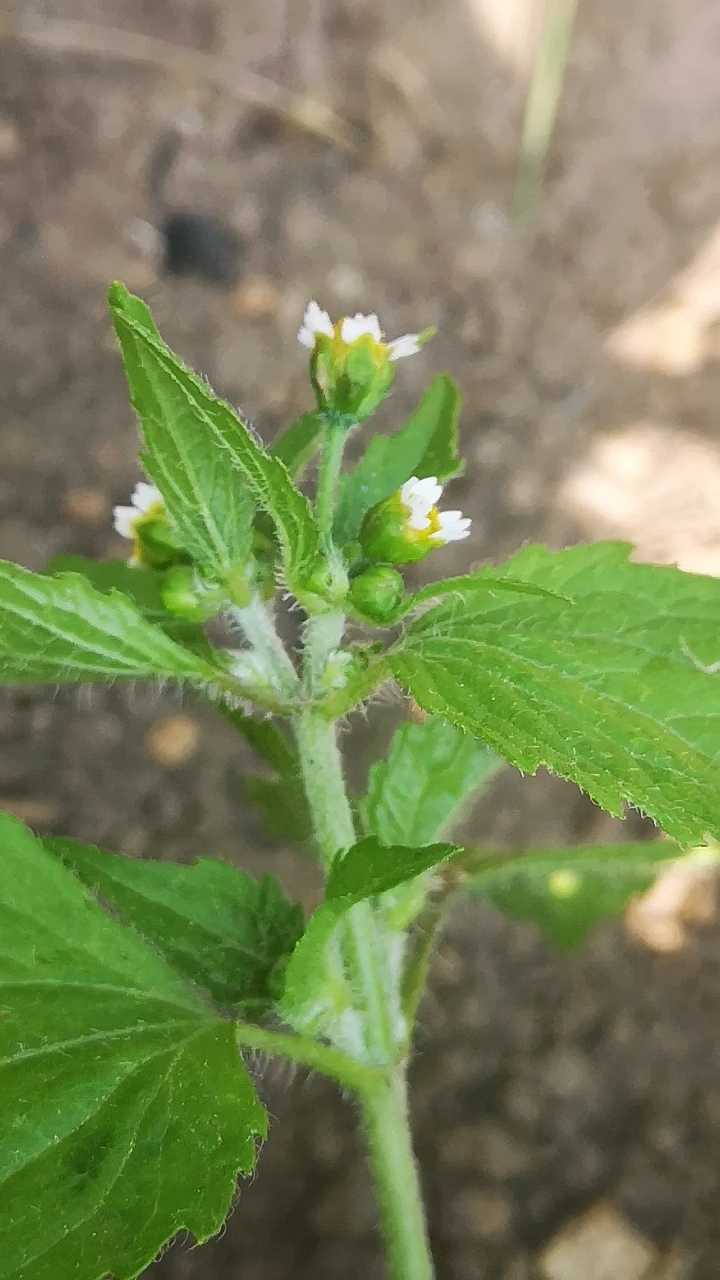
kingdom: Plantae
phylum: Tracheophyta
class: Magnoliopsida
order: Asterales
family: Asteraceae
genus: Galinsoga
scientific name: Galinsoga quadriradiata
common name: Shaggy soldier
